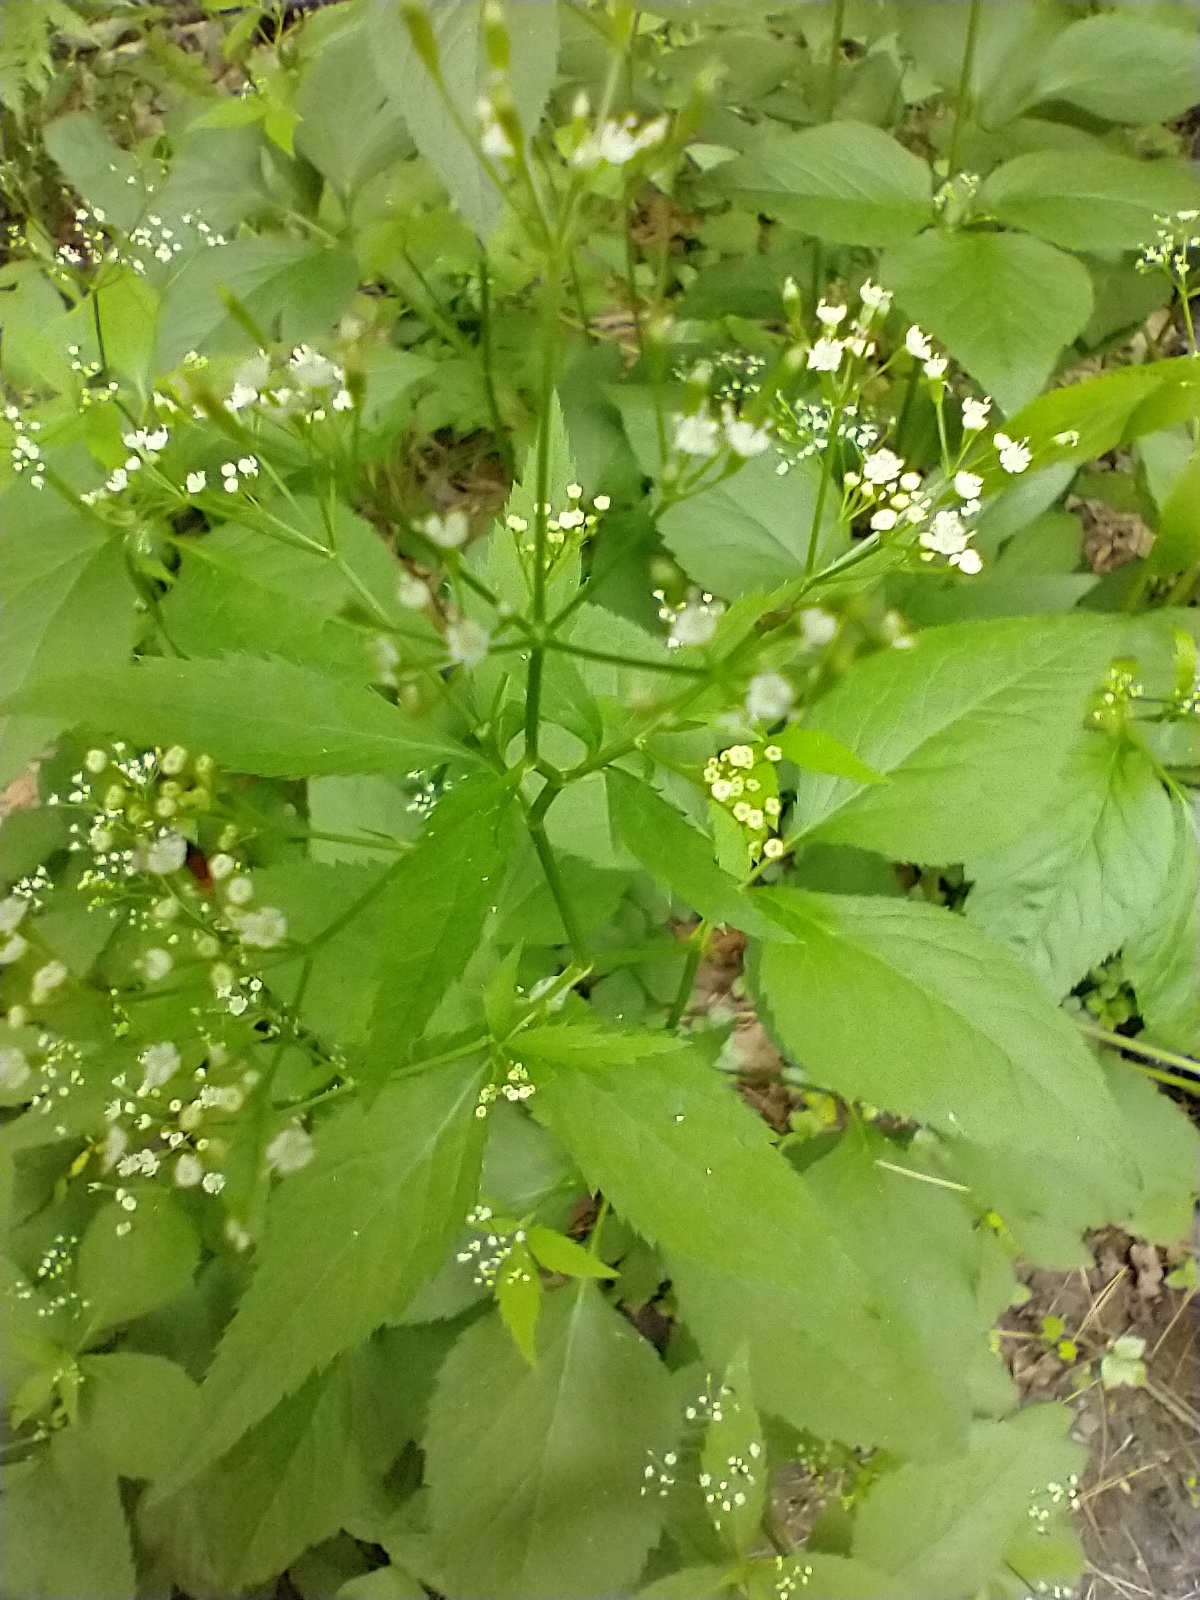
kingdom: Plantae
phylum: Tracheophyta
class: Magnoliopsida
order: Apiales
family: Apiaceae
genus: Cryptotaenia
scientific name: Cryptotaenia canadensis
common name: Honewort
